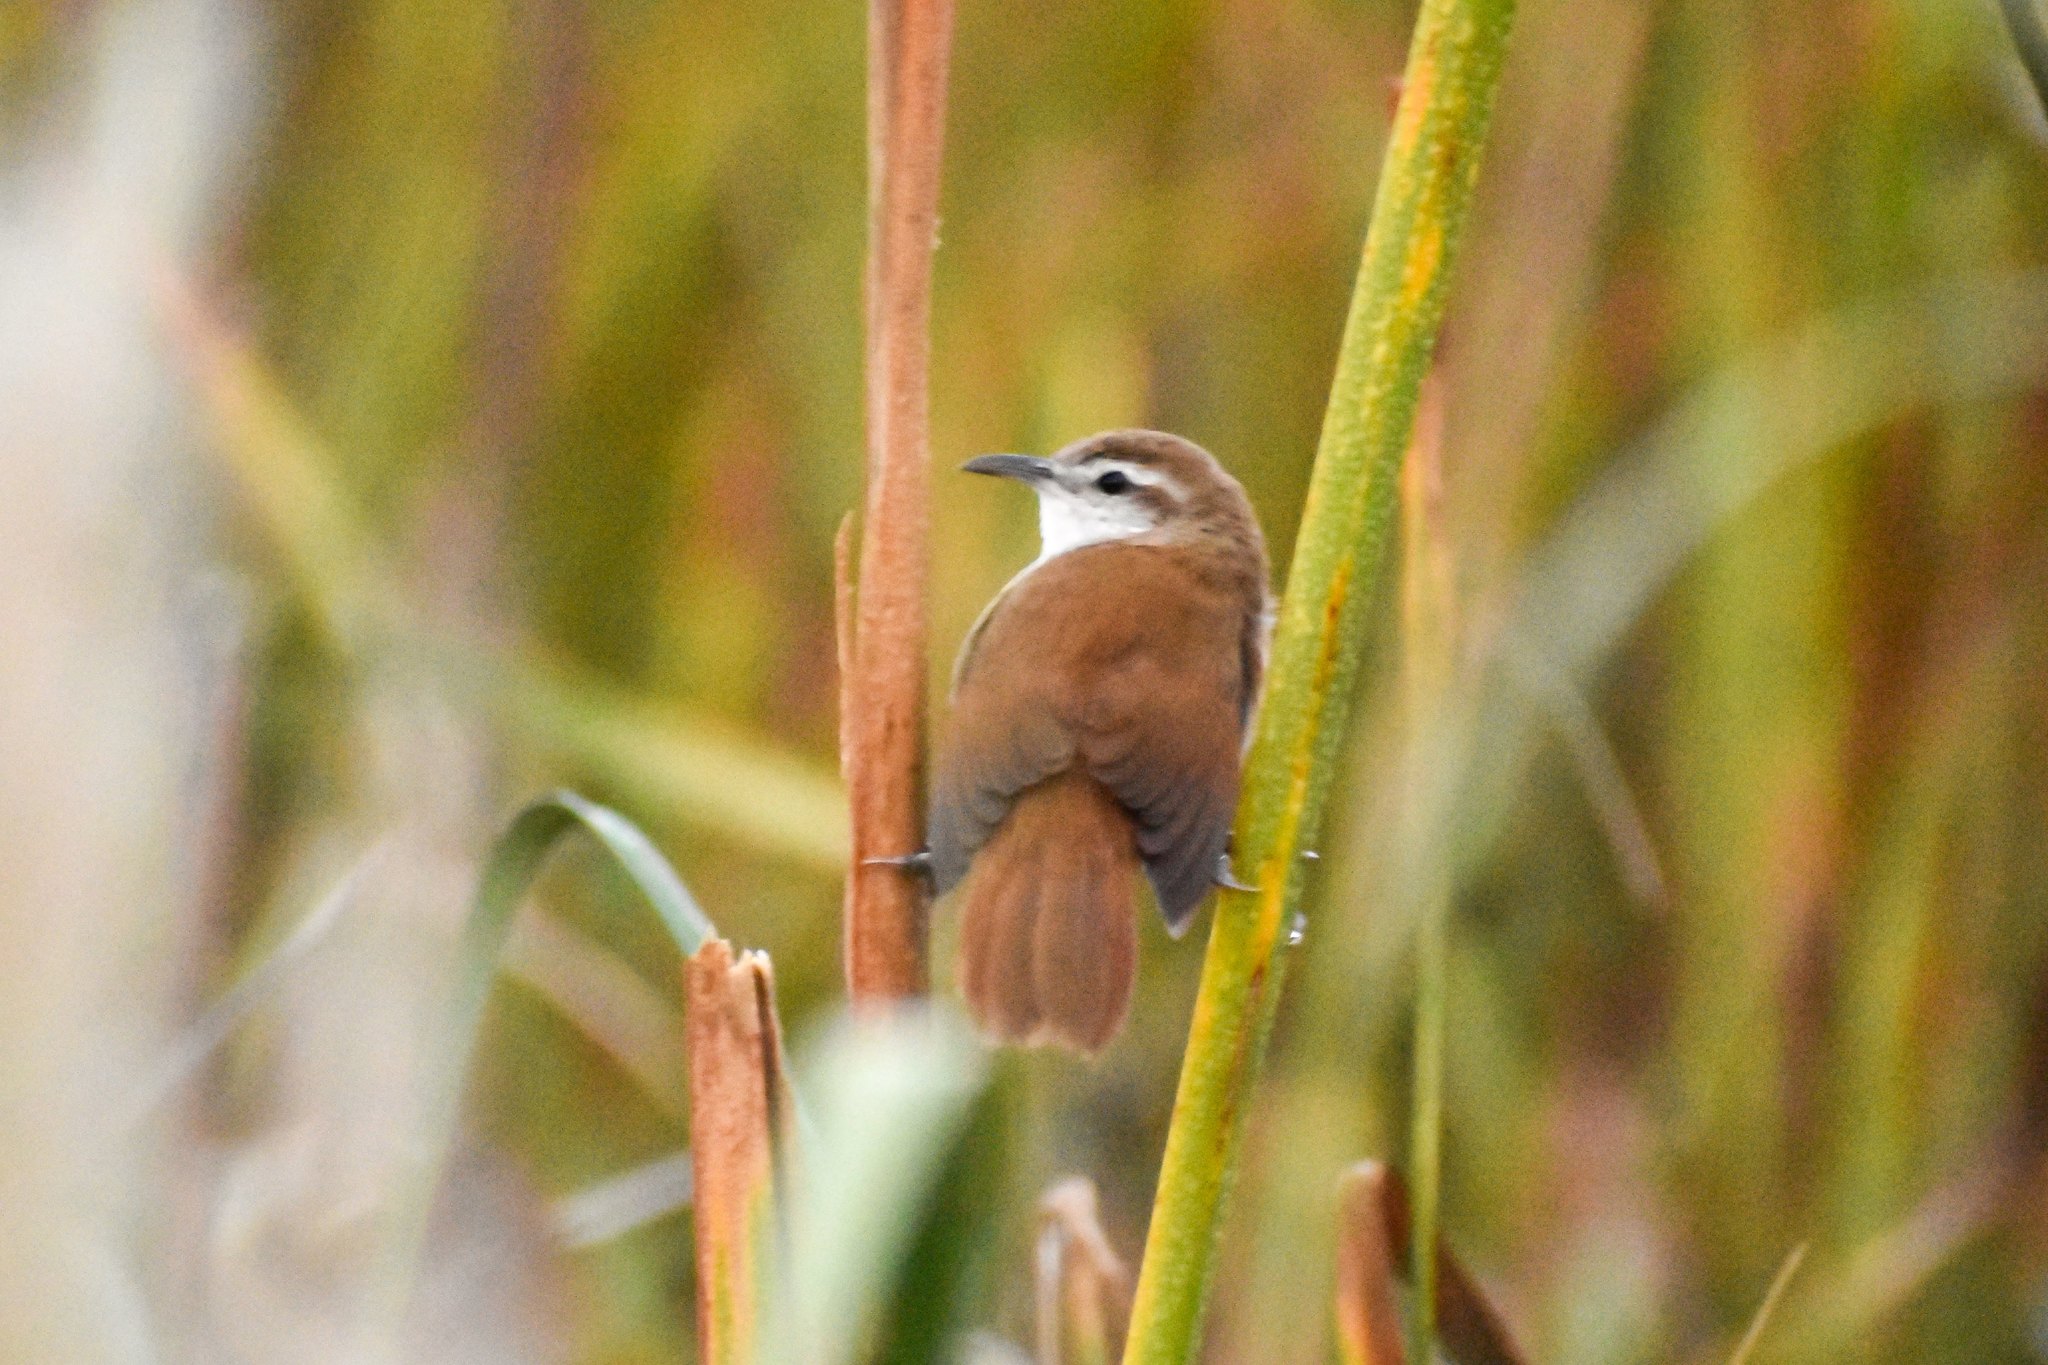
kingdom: Animalia
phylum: Chordata
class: Aves
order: Passeriformes
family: Furnariidae
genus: Limnornis
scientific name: Limnornis curvirostris
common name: Curve-billed reedhaunter
